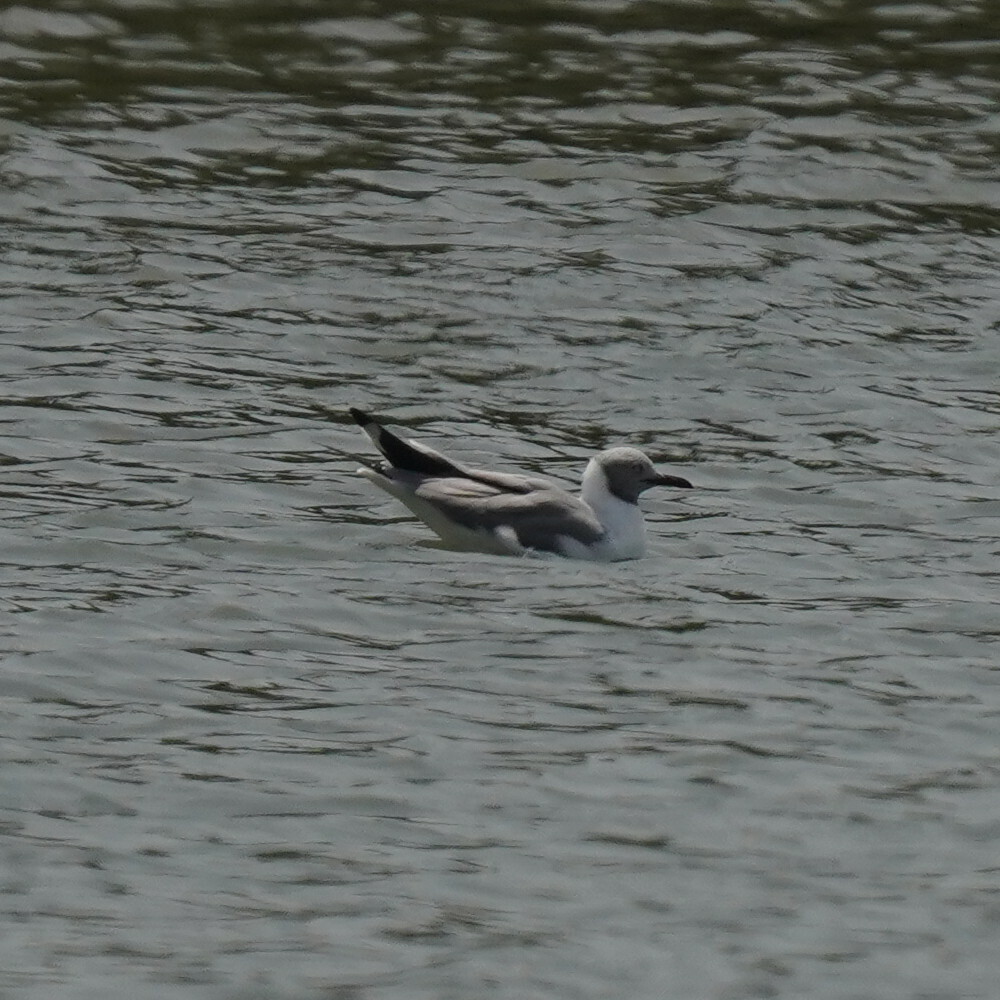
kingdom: Animalia
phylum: Chordata
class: Aves
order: Charadriiformes
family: Laridae
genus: Chroicocephalus
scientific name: Chroicocephalus cirrocephalus
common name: Grey-headed gull
